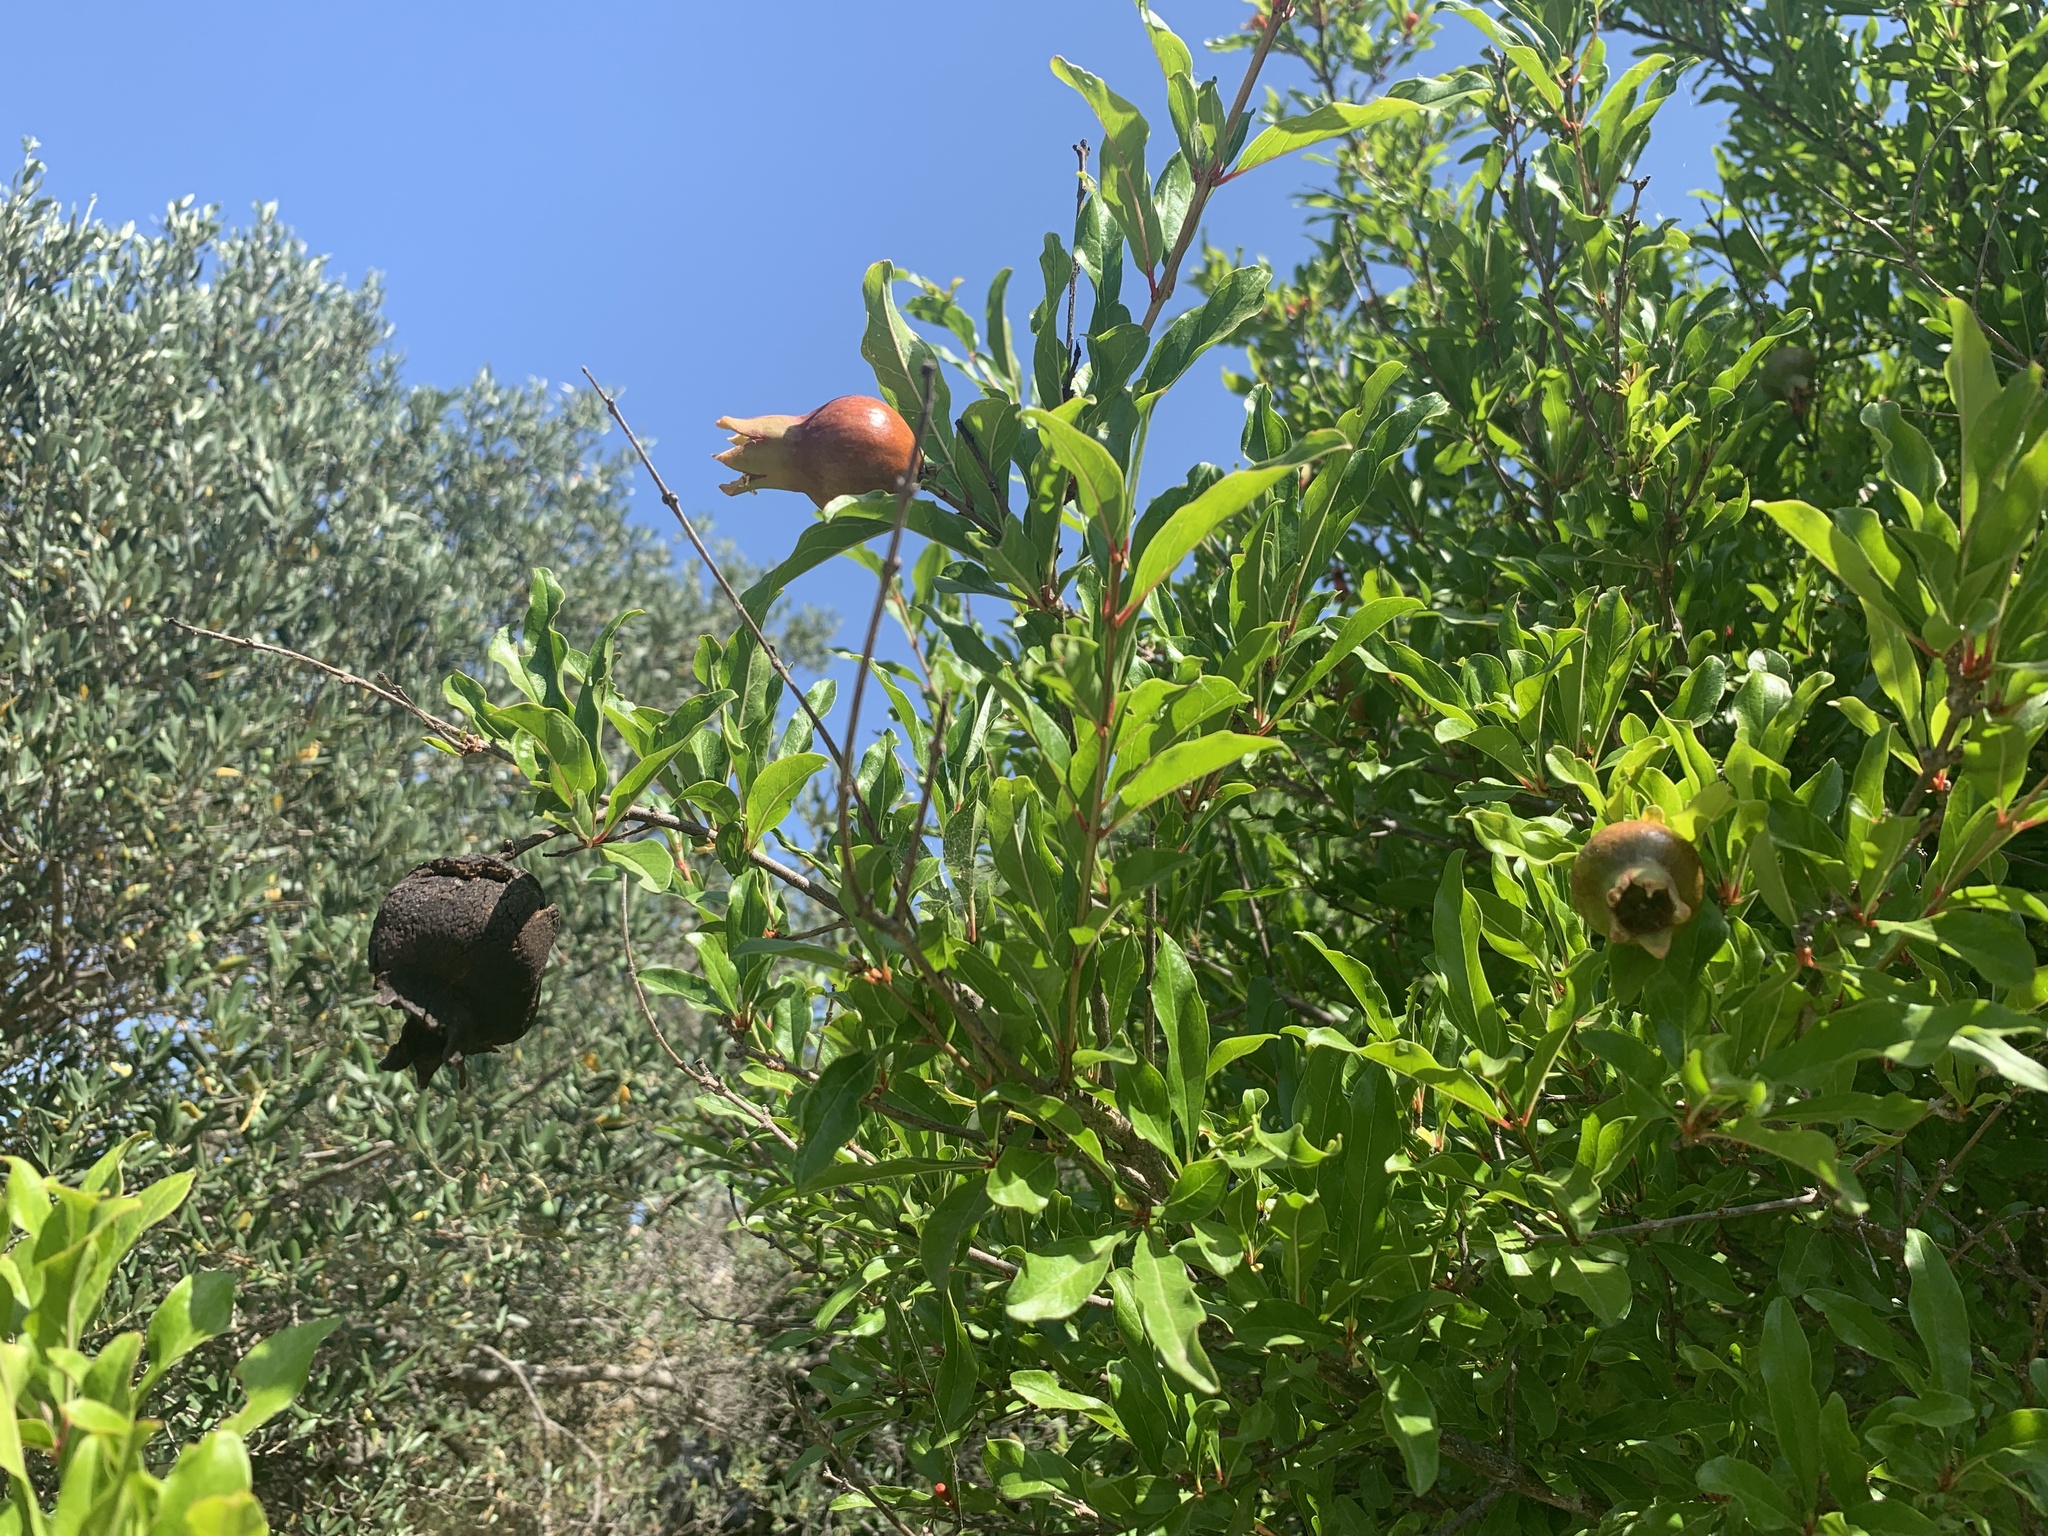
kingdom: Plantae
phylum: Tracheophyta
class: Magnoliopsida
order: Myrtales
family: Lythraceae
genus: Punica
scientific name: Punica granatum
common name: Pomegranate
